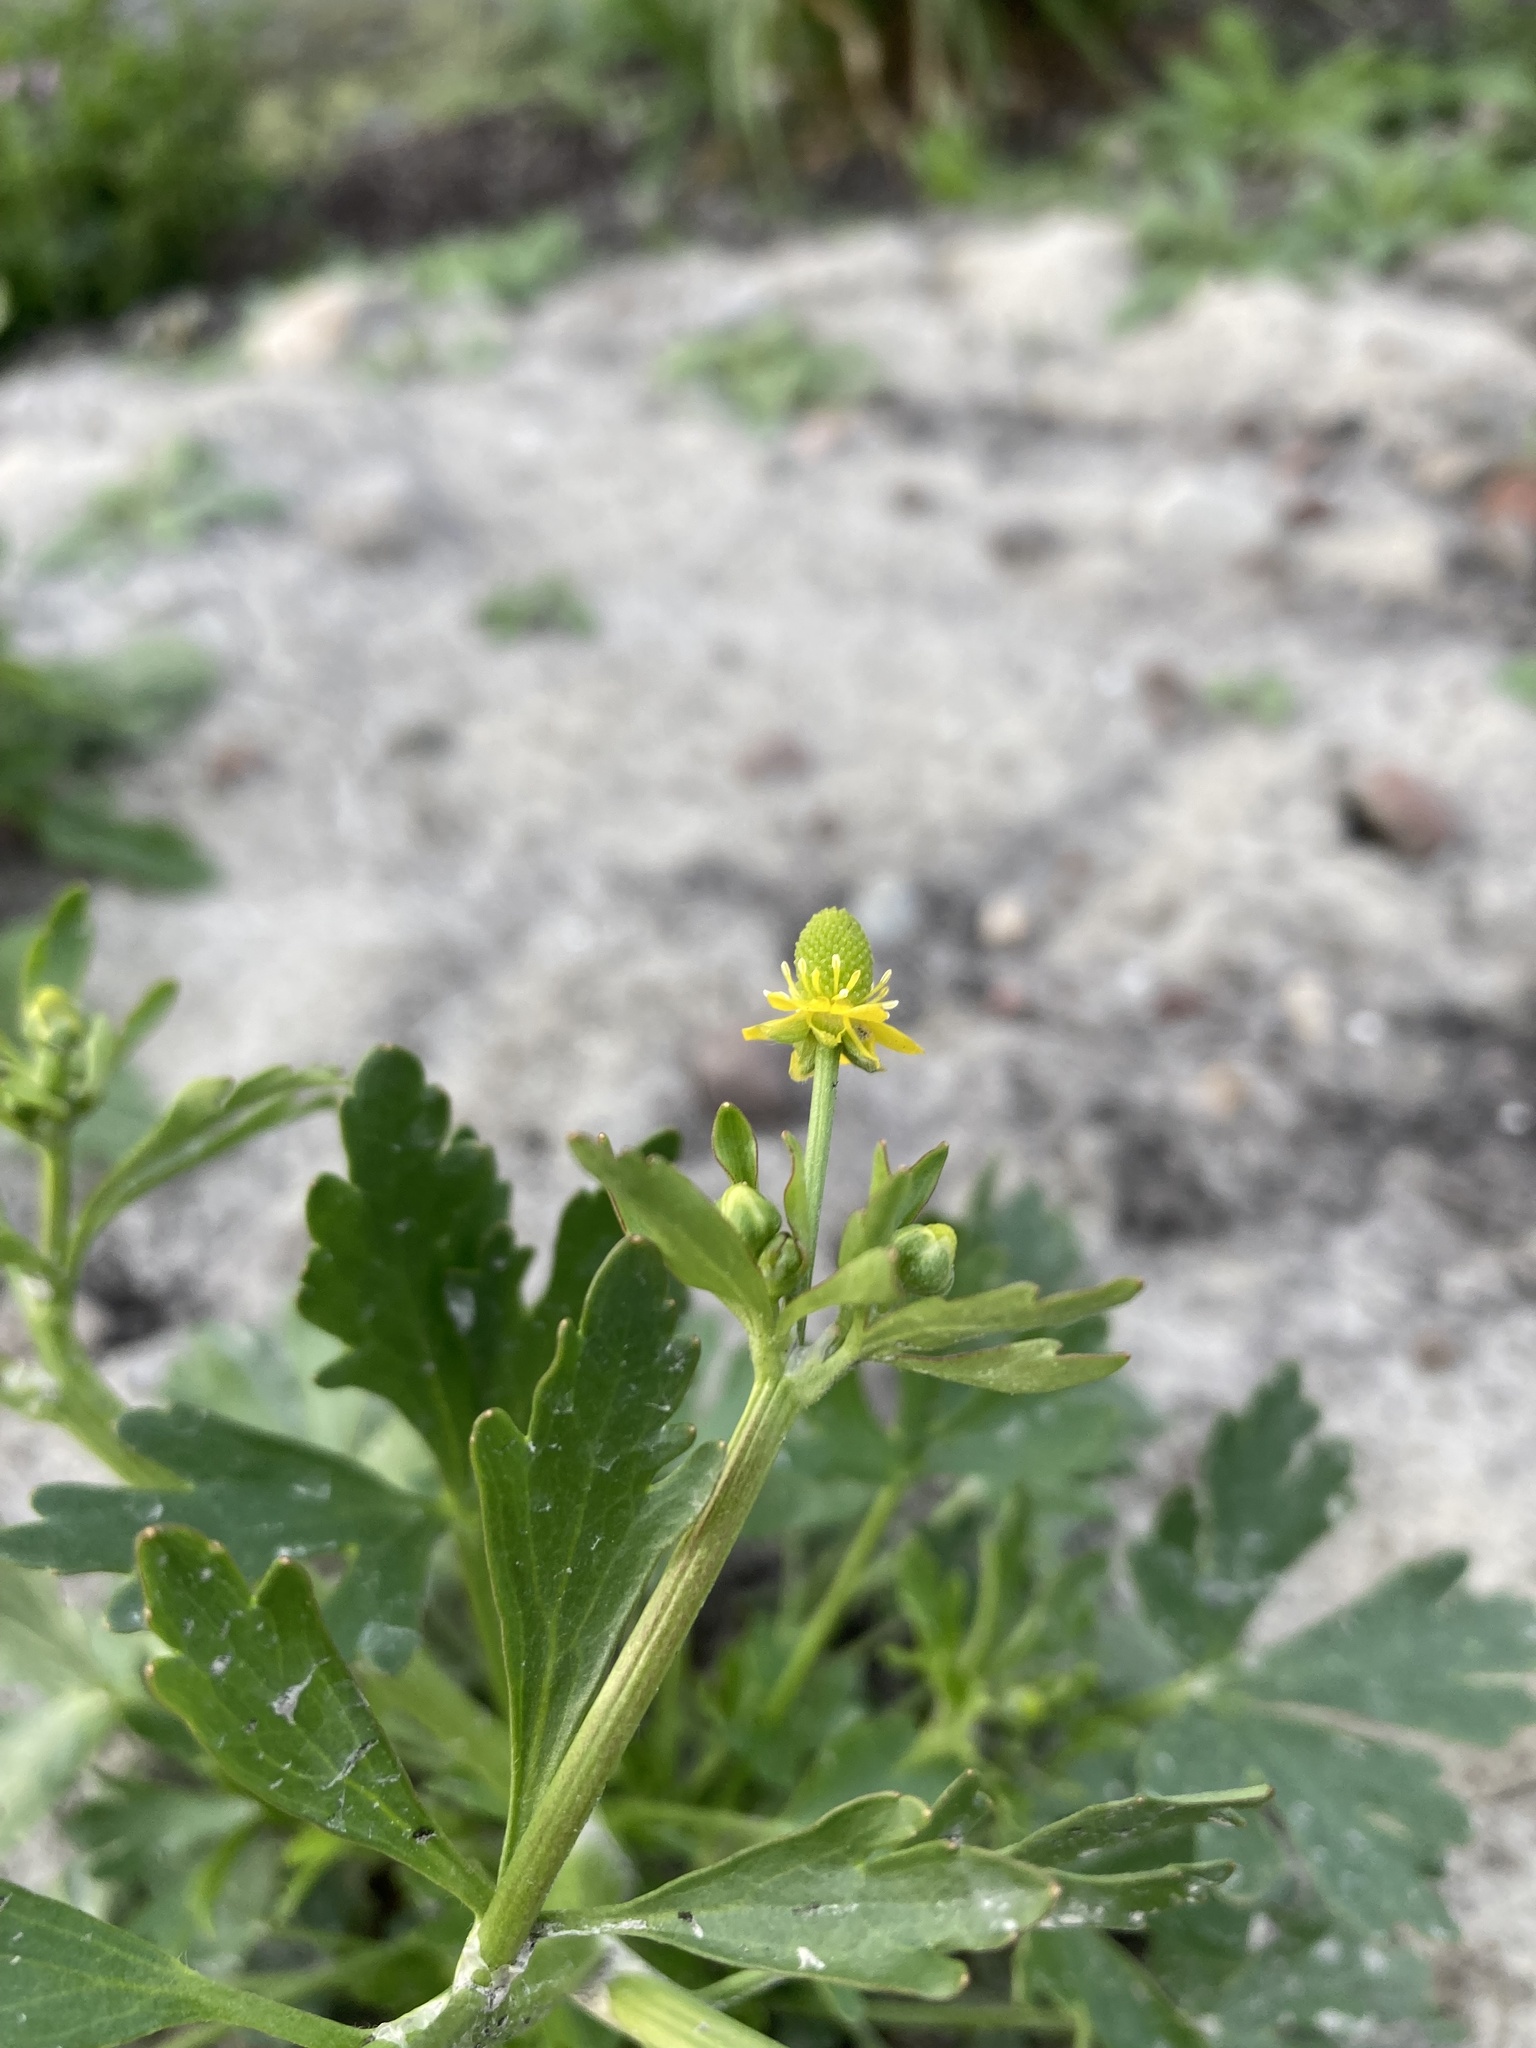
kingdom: Plantae
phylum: Tracheophyta
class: Magnoliopsida
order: Ranunculales
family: Ranunculaceae
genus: Ranunculus
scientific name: Ranunculus sceleratus
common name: Celery-leaved buttercup
